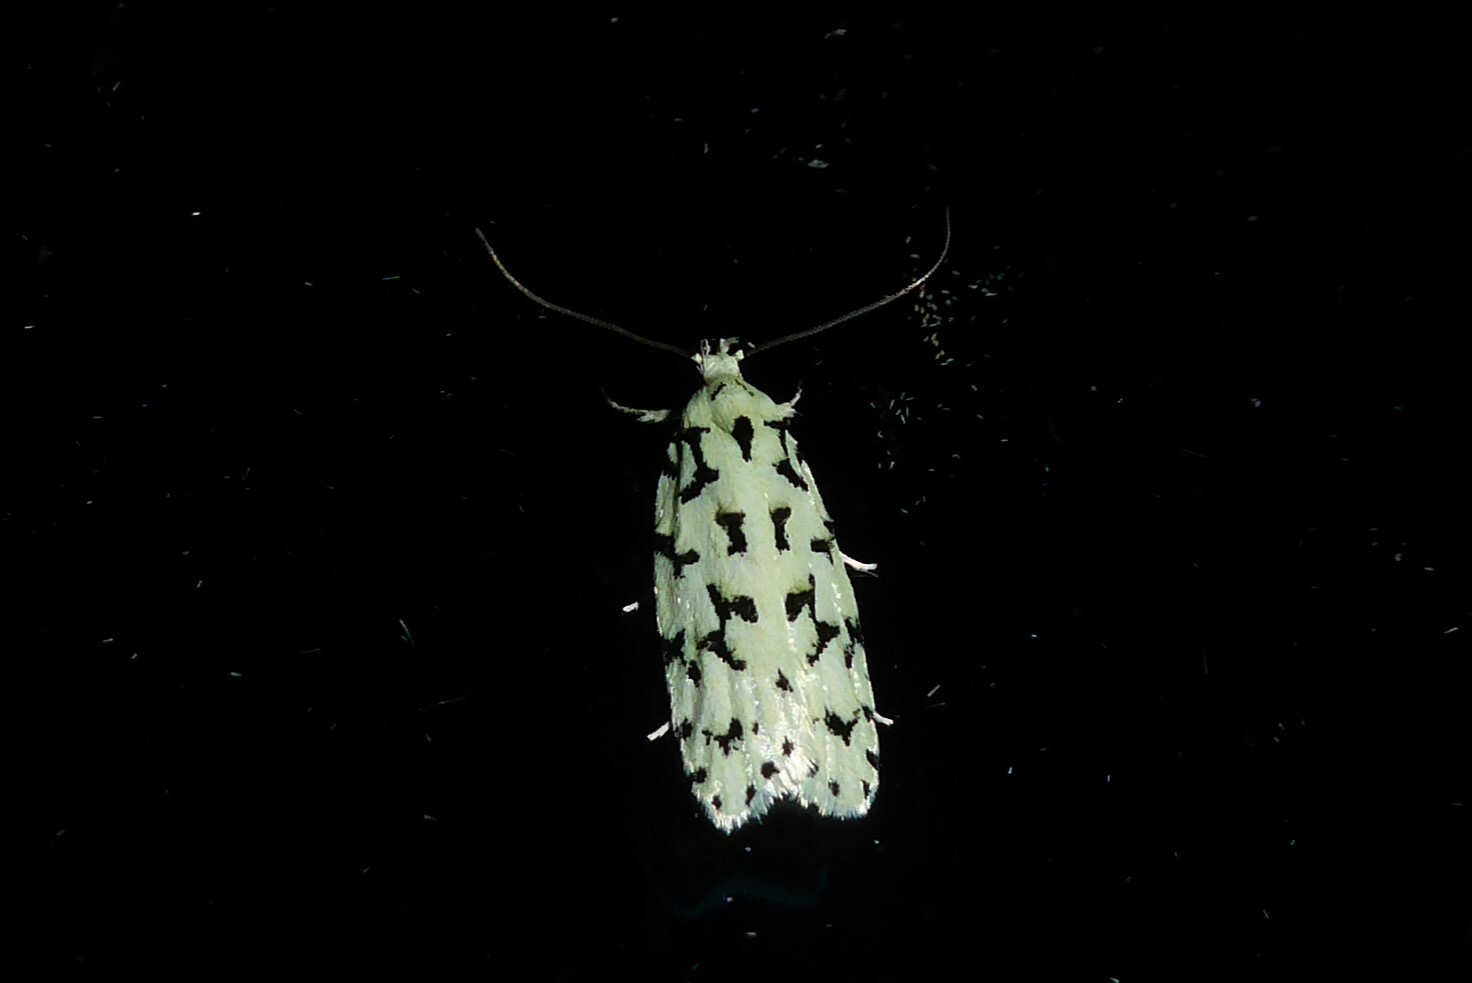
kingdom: Animalia
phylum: Arthropoda
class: Insecta
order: Lepidoptera
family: Oecophoridae
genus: Izatha
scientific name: Izatha huttoni
